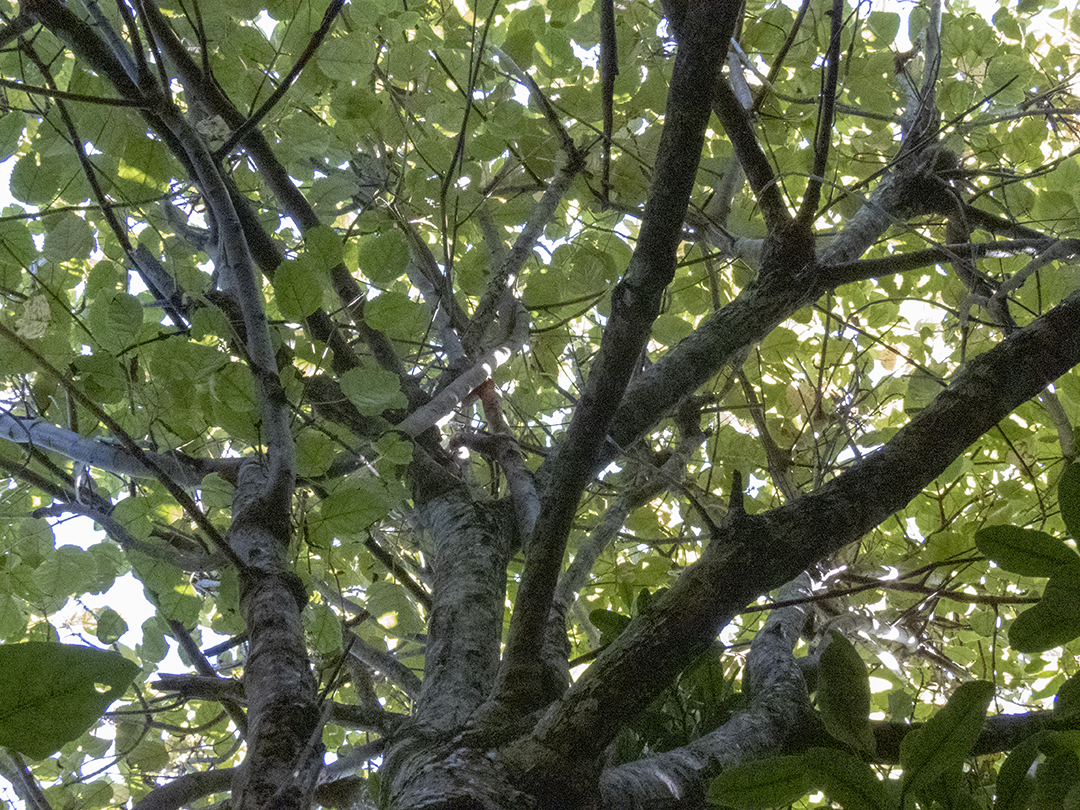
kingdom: Plantae
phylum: Tracheophyta
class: Magnoliopsida
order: Oxalidales
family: Elaeocarpaceae
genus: Aristotelia
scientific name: Aristotelia serrata
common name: New zealand wineberry
